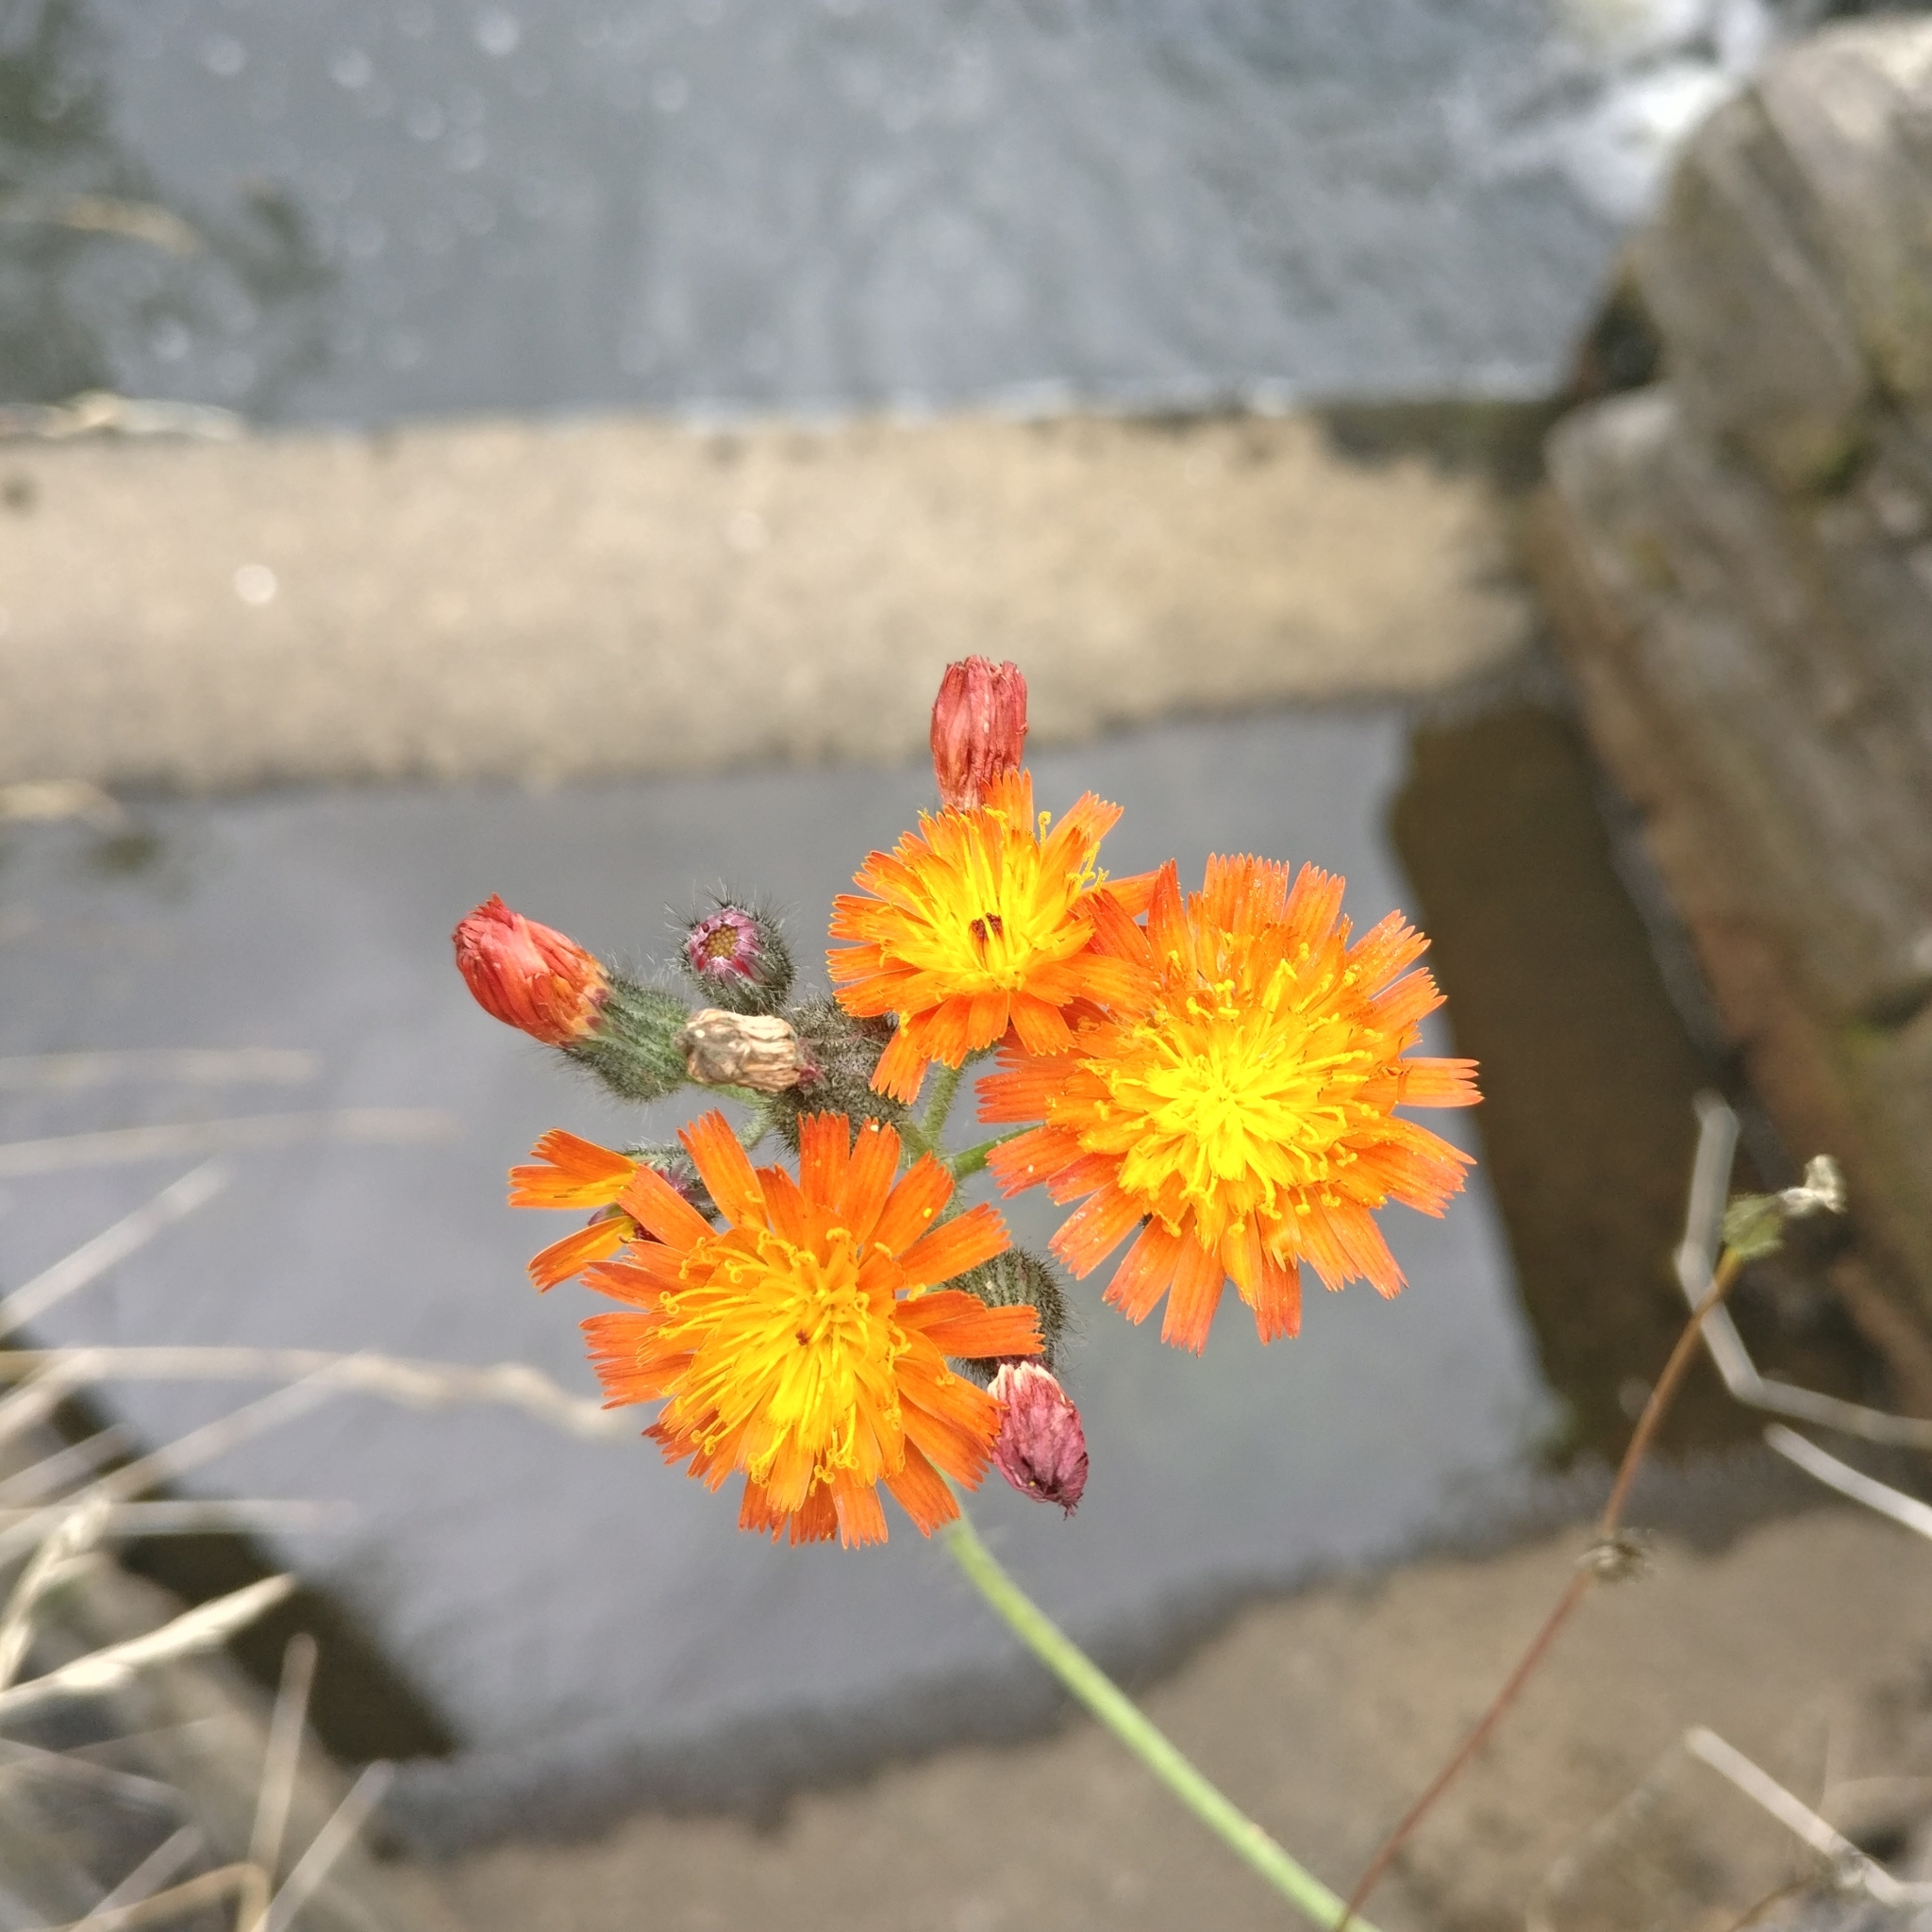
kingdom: Plantae
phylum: Tracheophyta
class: Magnoliopsida
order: Asterales
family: Asteraceae
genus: Pilosella
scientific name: Pilosella aurantiaca
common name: Fox-and-cubs
